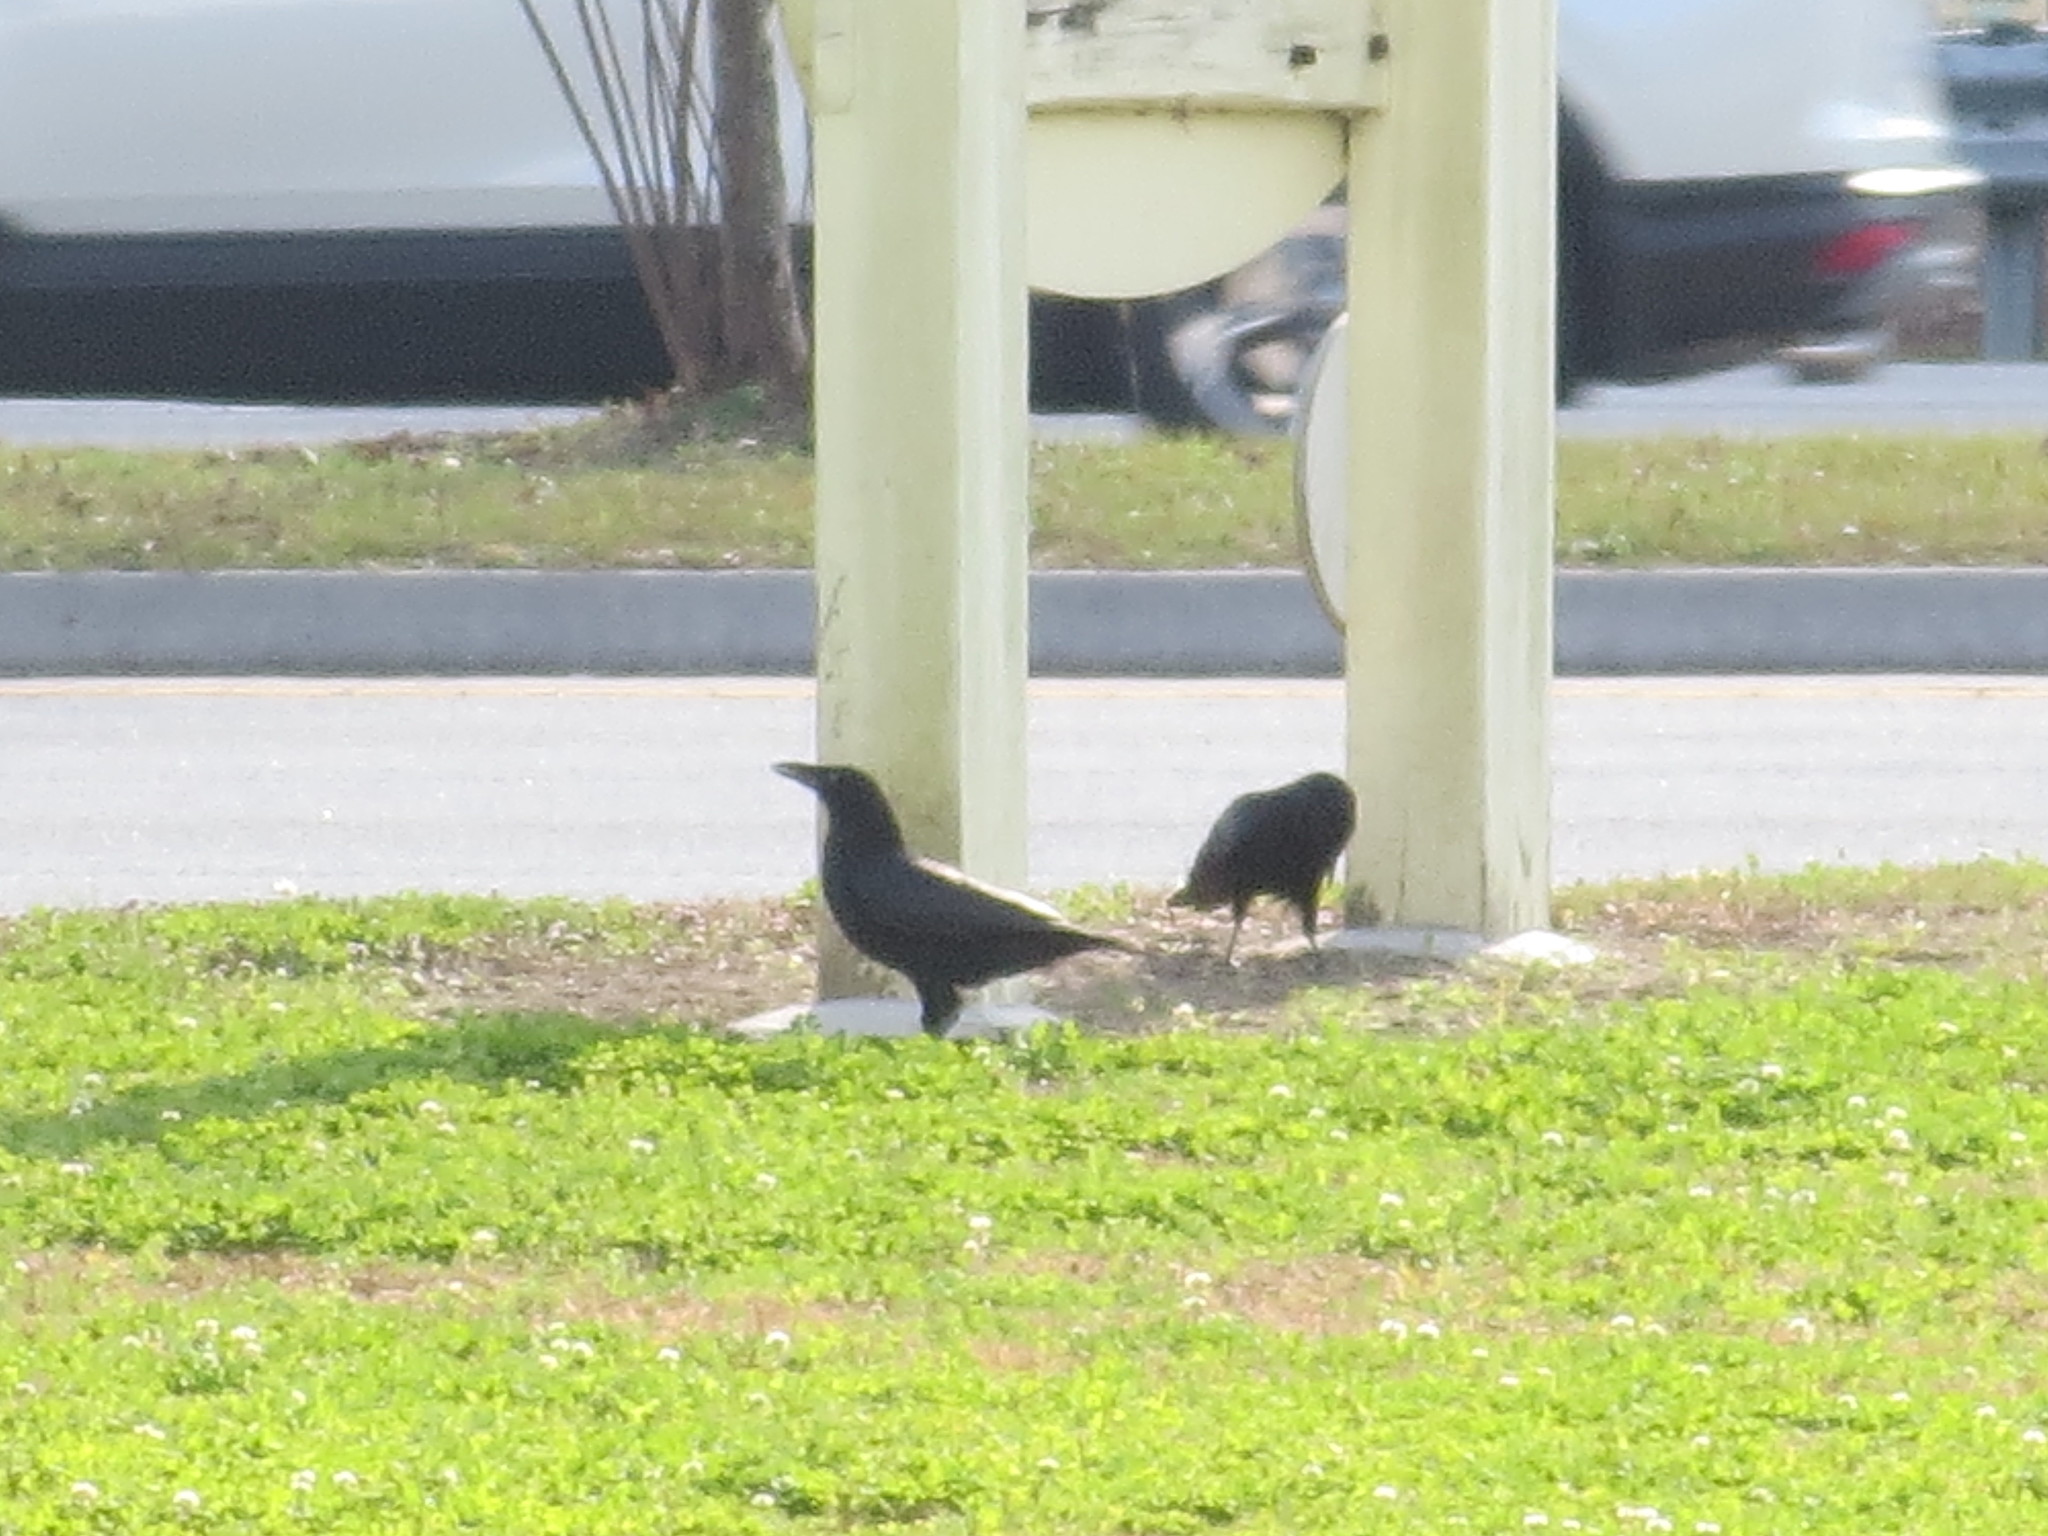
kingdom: Animalia
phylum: Chordata
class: Aves
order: Passeriformes
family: Corvidae
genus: Corvus
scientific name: Corvus
